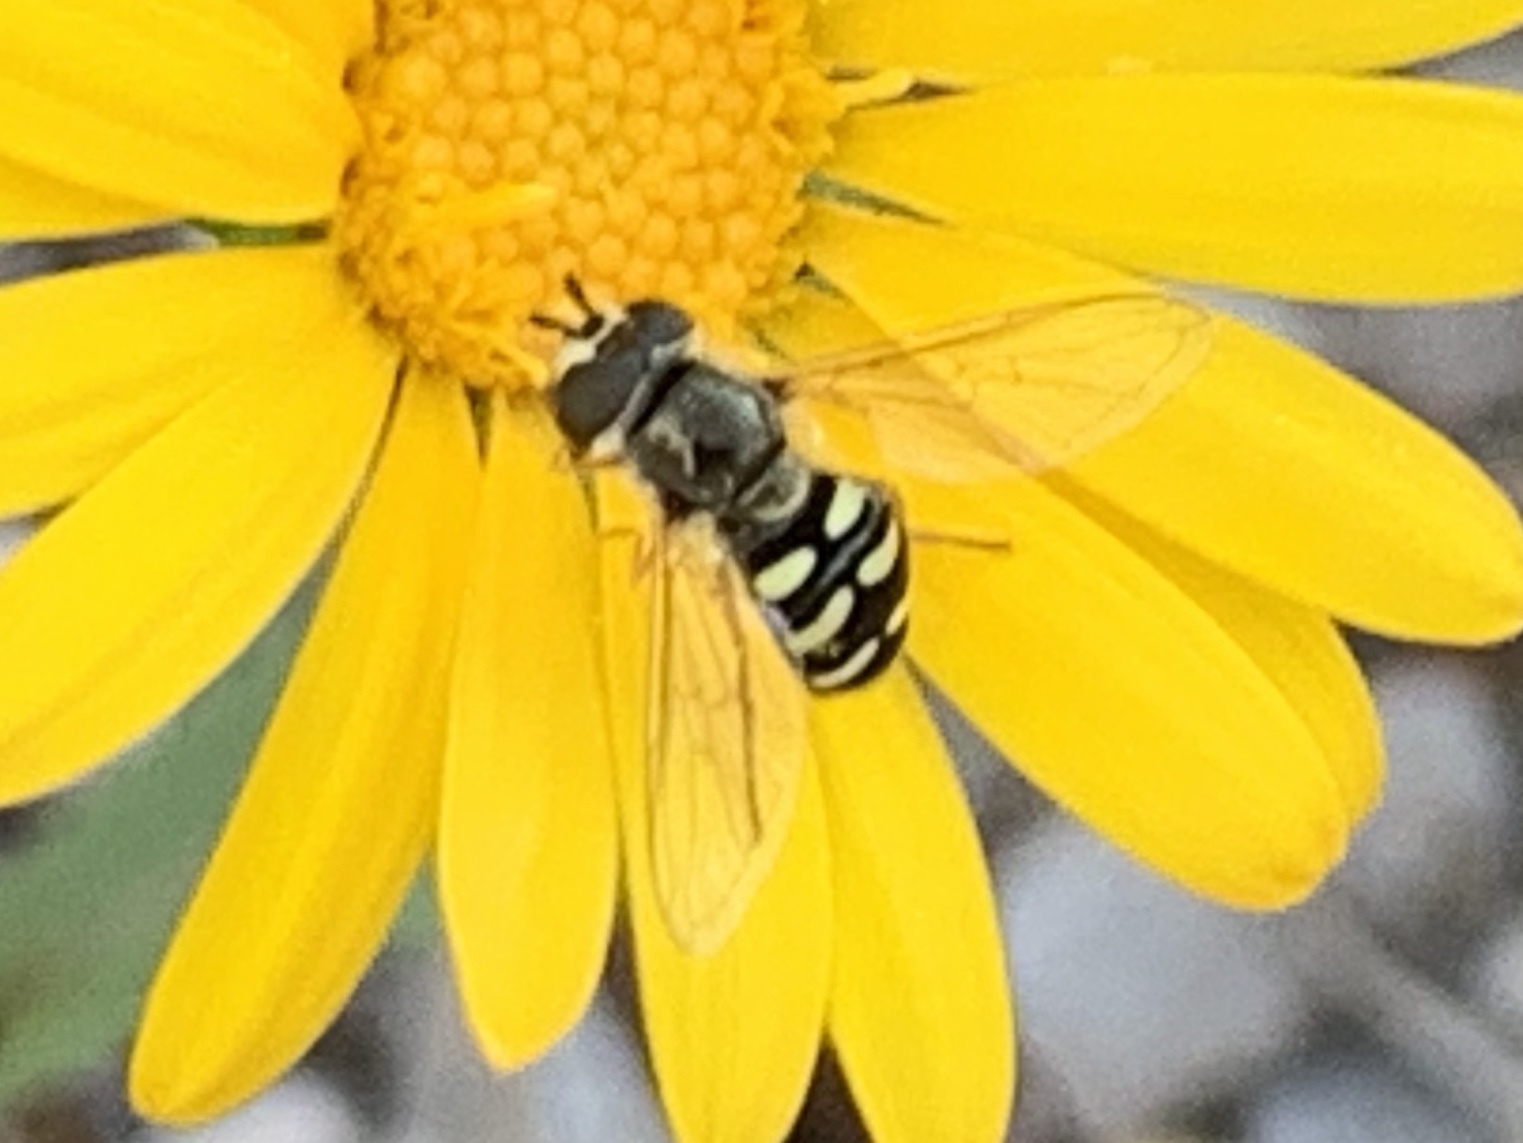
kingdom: Animalia
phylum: Arthropoda
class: Insecta
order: Diptera
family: Syrphidae
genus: Eupeodes
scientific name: Eupeodes volucris
